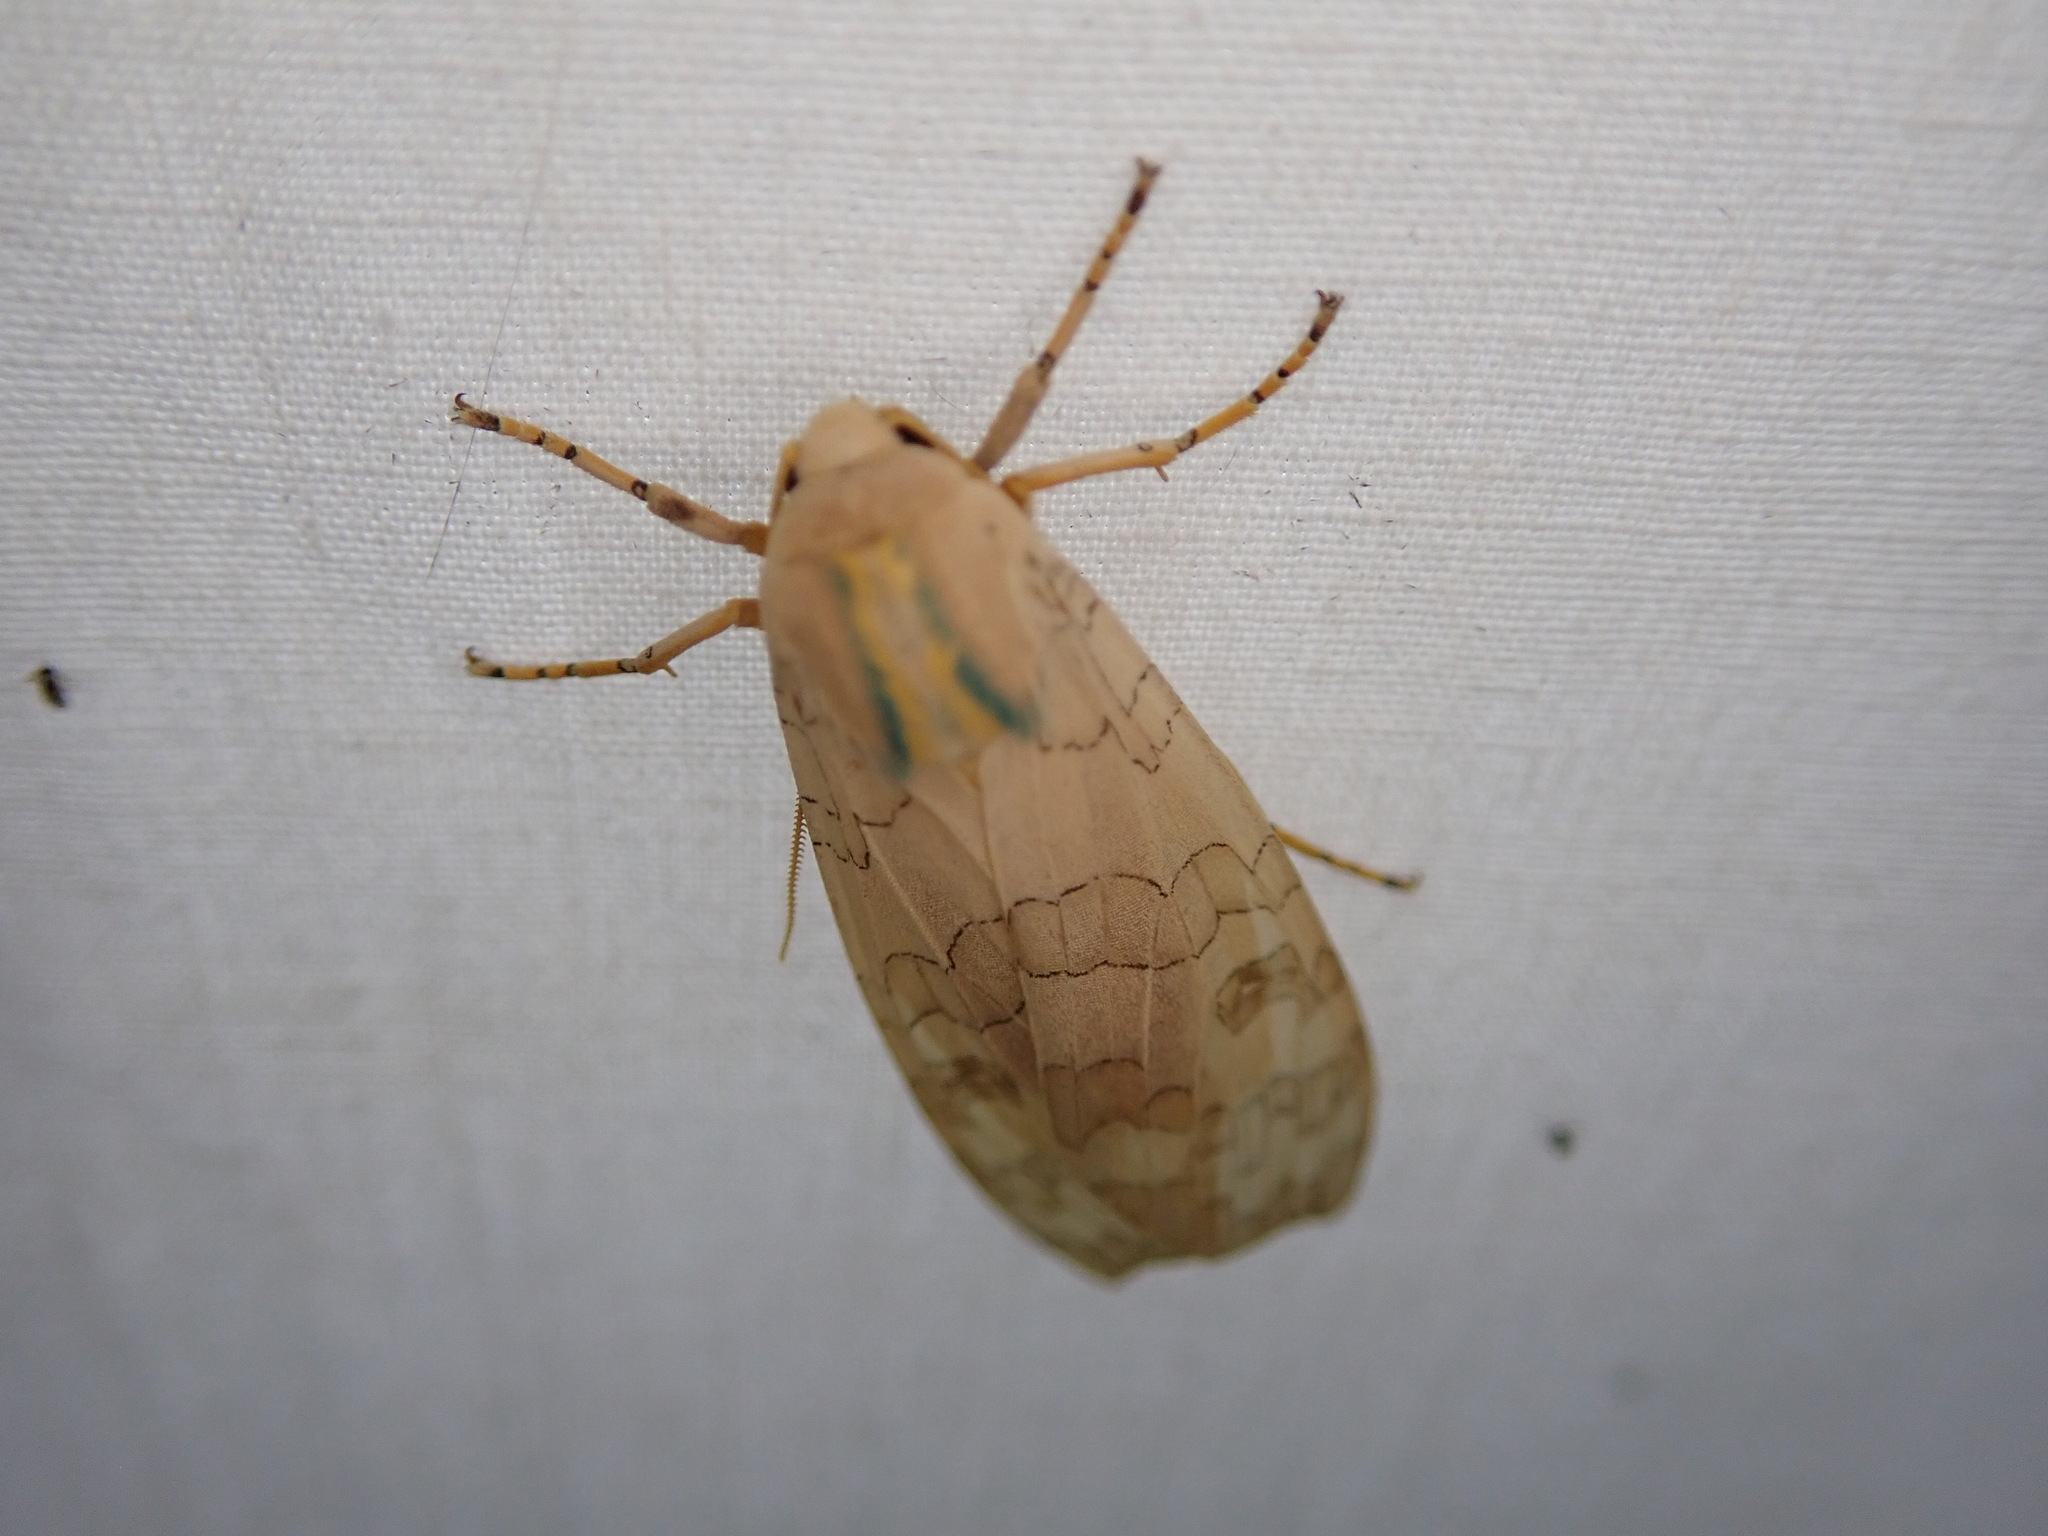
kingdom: Animalia
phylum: Arthropoda
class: Insecta
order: Lepidoptera
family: Erebidae
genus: Halysidota
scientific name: Halysidota
